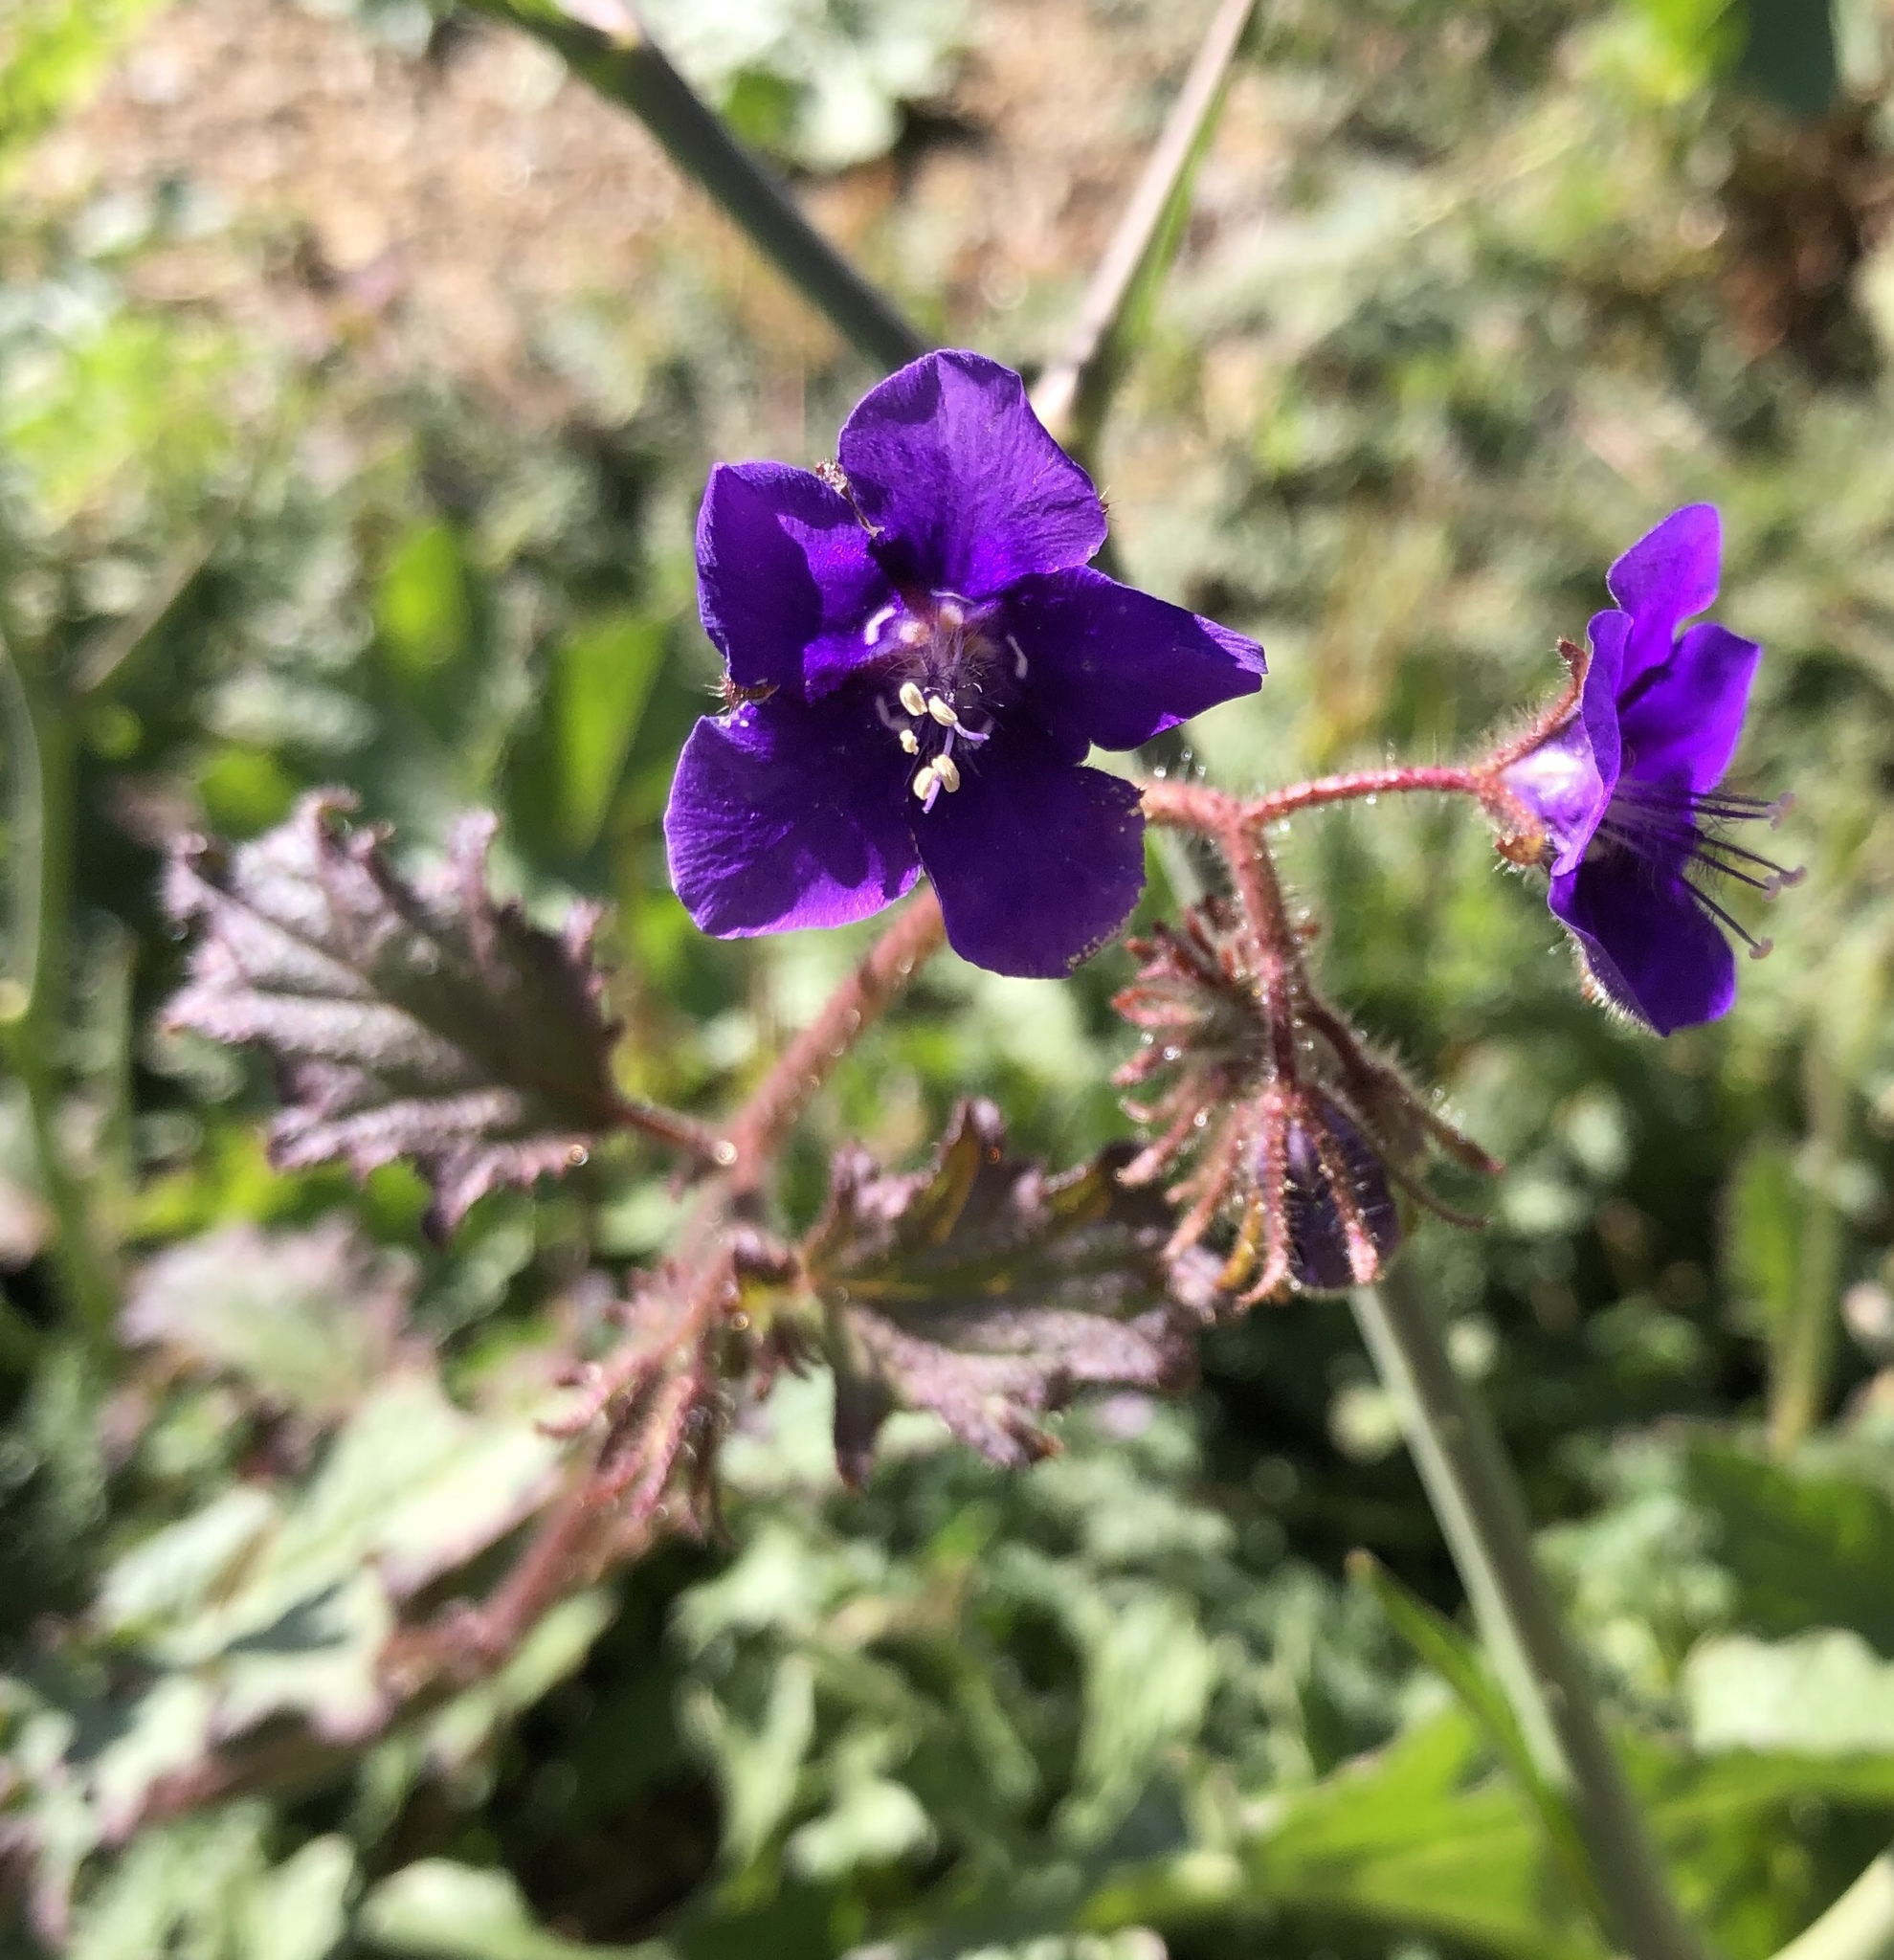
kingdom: Plantae
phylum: Tracheophyta
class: Magnoliopsida
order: Boraginales
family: Hydrophyllaceae
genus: Phacelia
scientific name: Phacelia parryi
